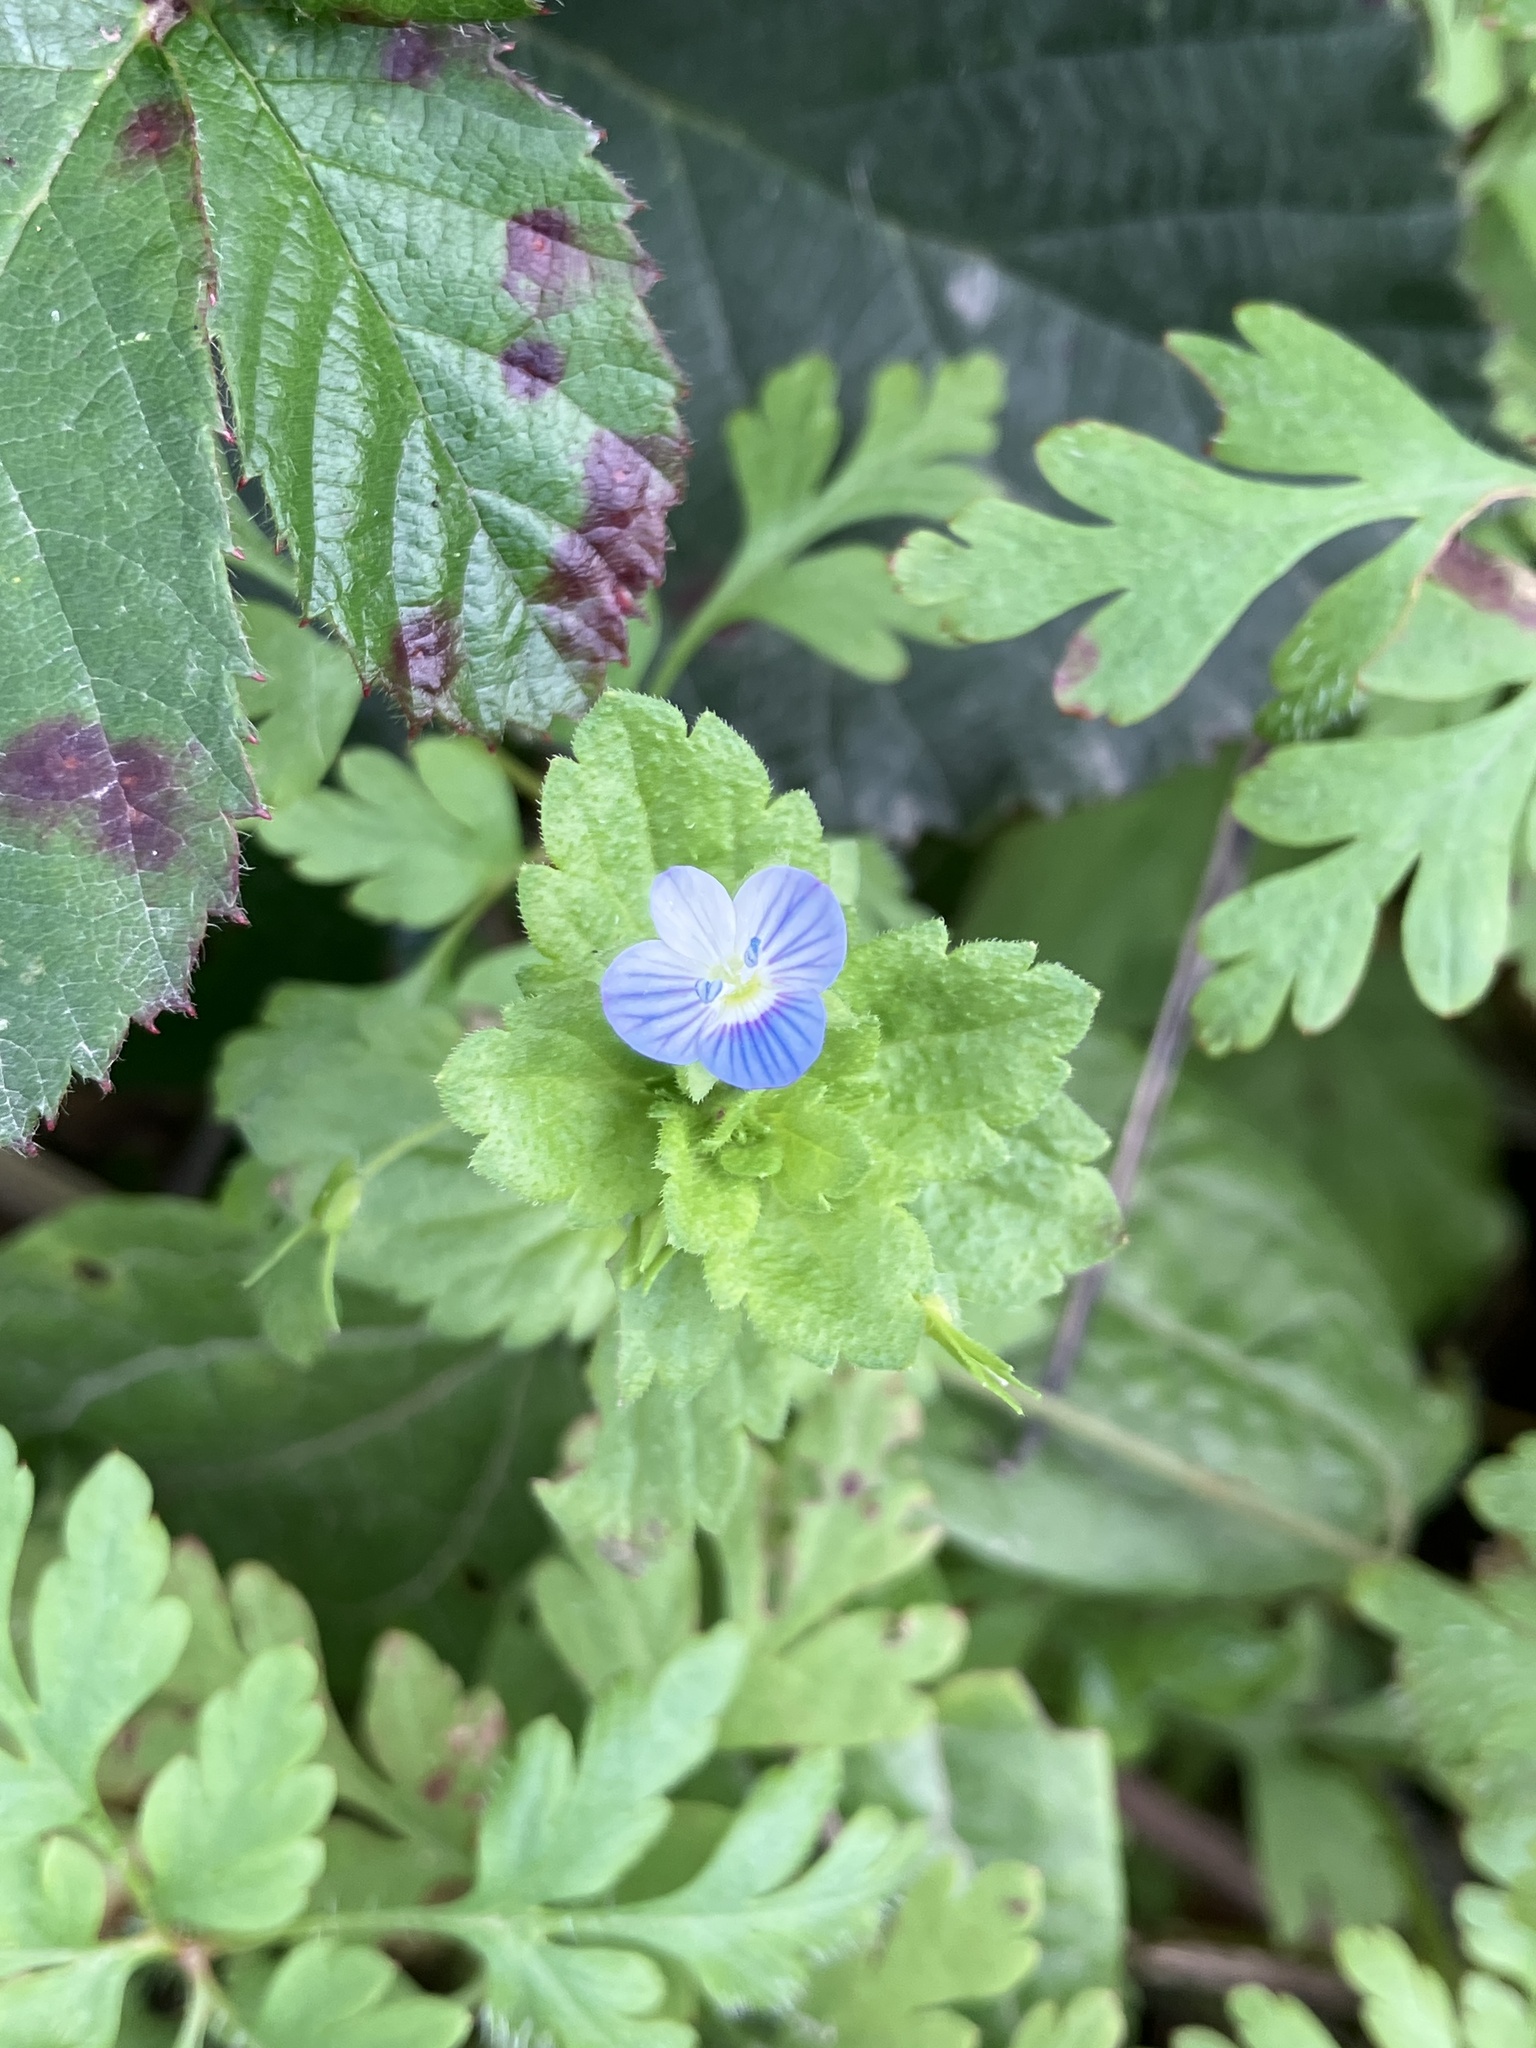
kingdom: Plantae
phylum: Tracheophyta
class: Magnoliopsida
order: Lamiales
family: Plantaginaceae
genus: Veronica
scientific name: Veronica persica
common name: Common field-speedwell
